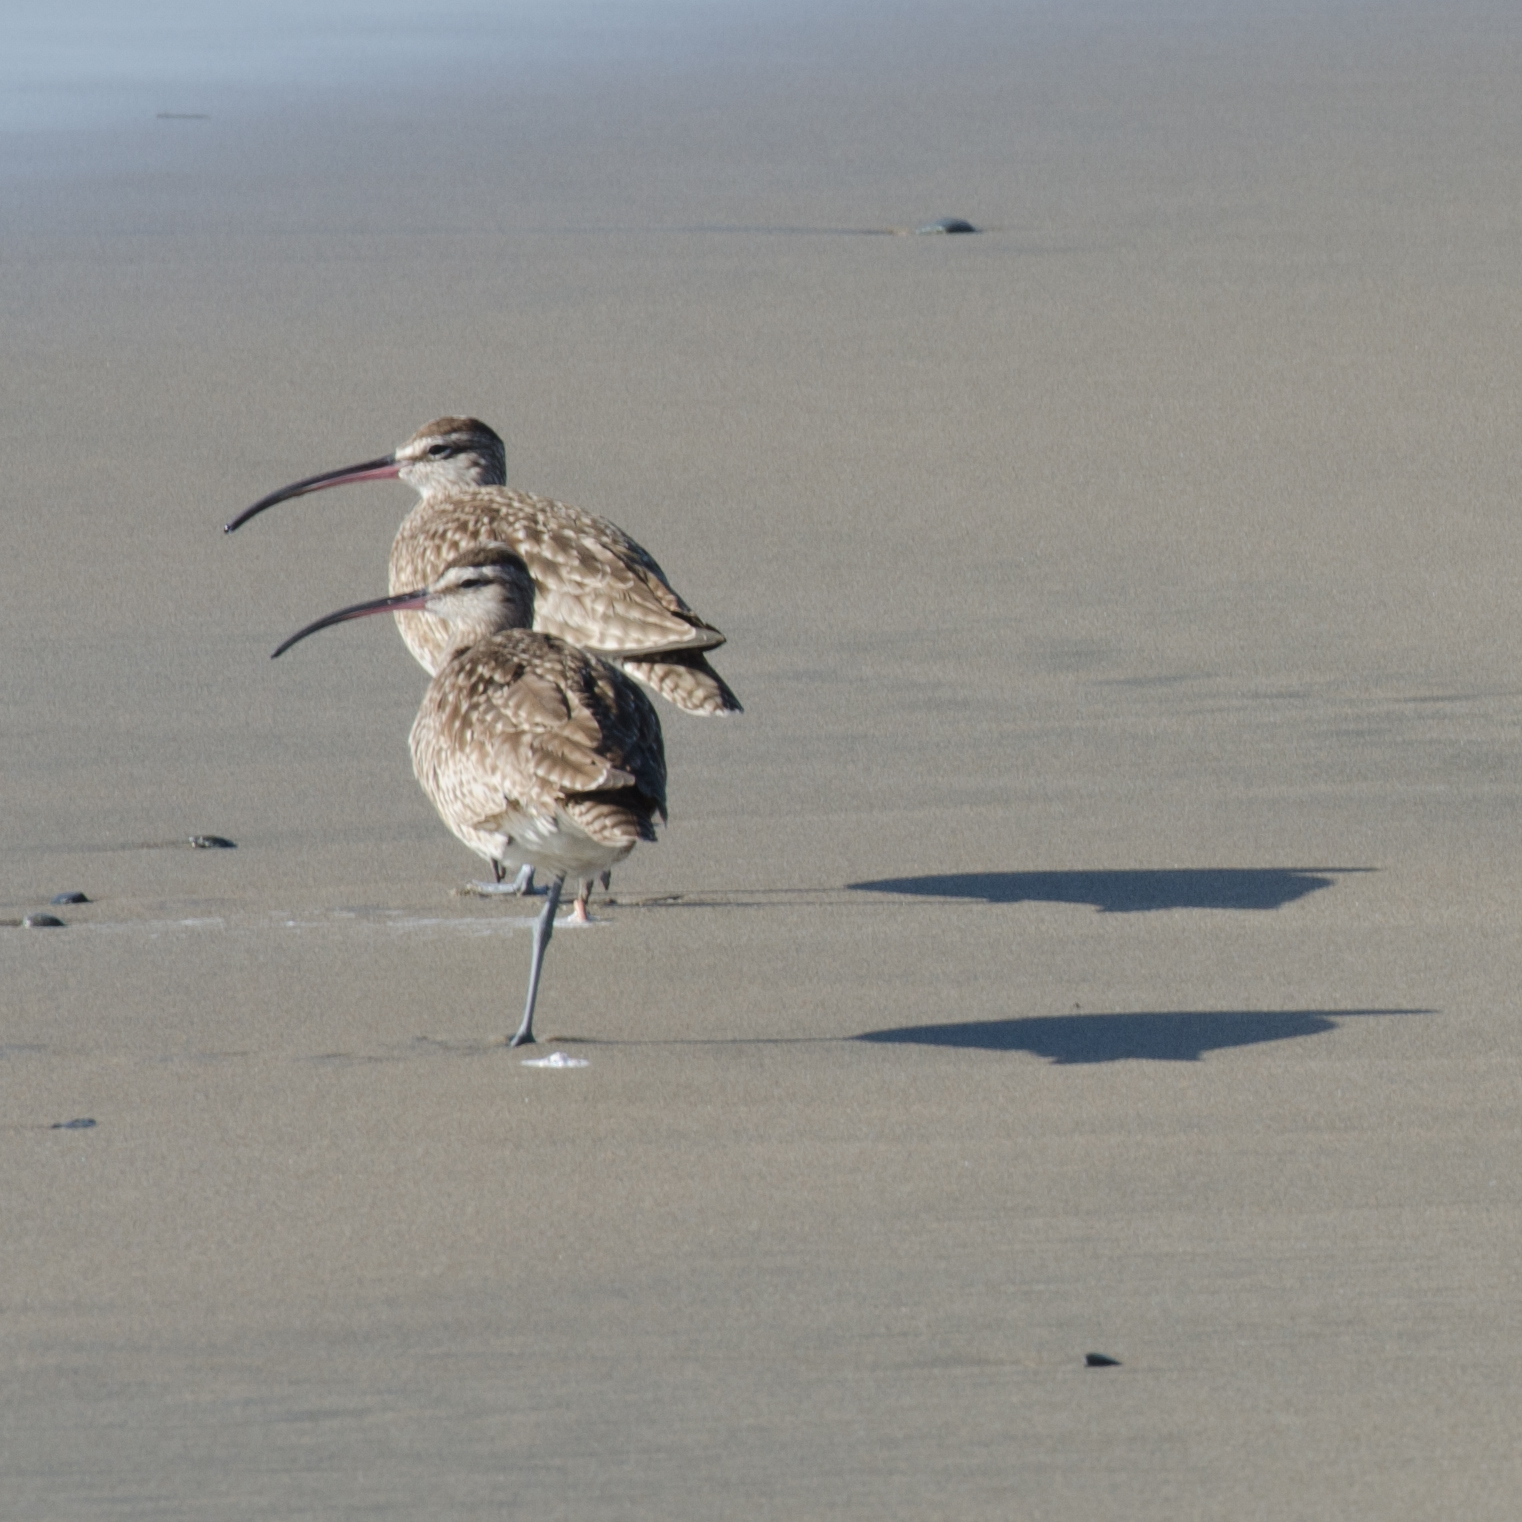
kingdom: Animalia
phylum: Chordata
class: Aves
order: Charadriiformes
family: Scolopacidae
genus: Numenius
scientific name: Numenius phaeopus
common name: Whimbrel
